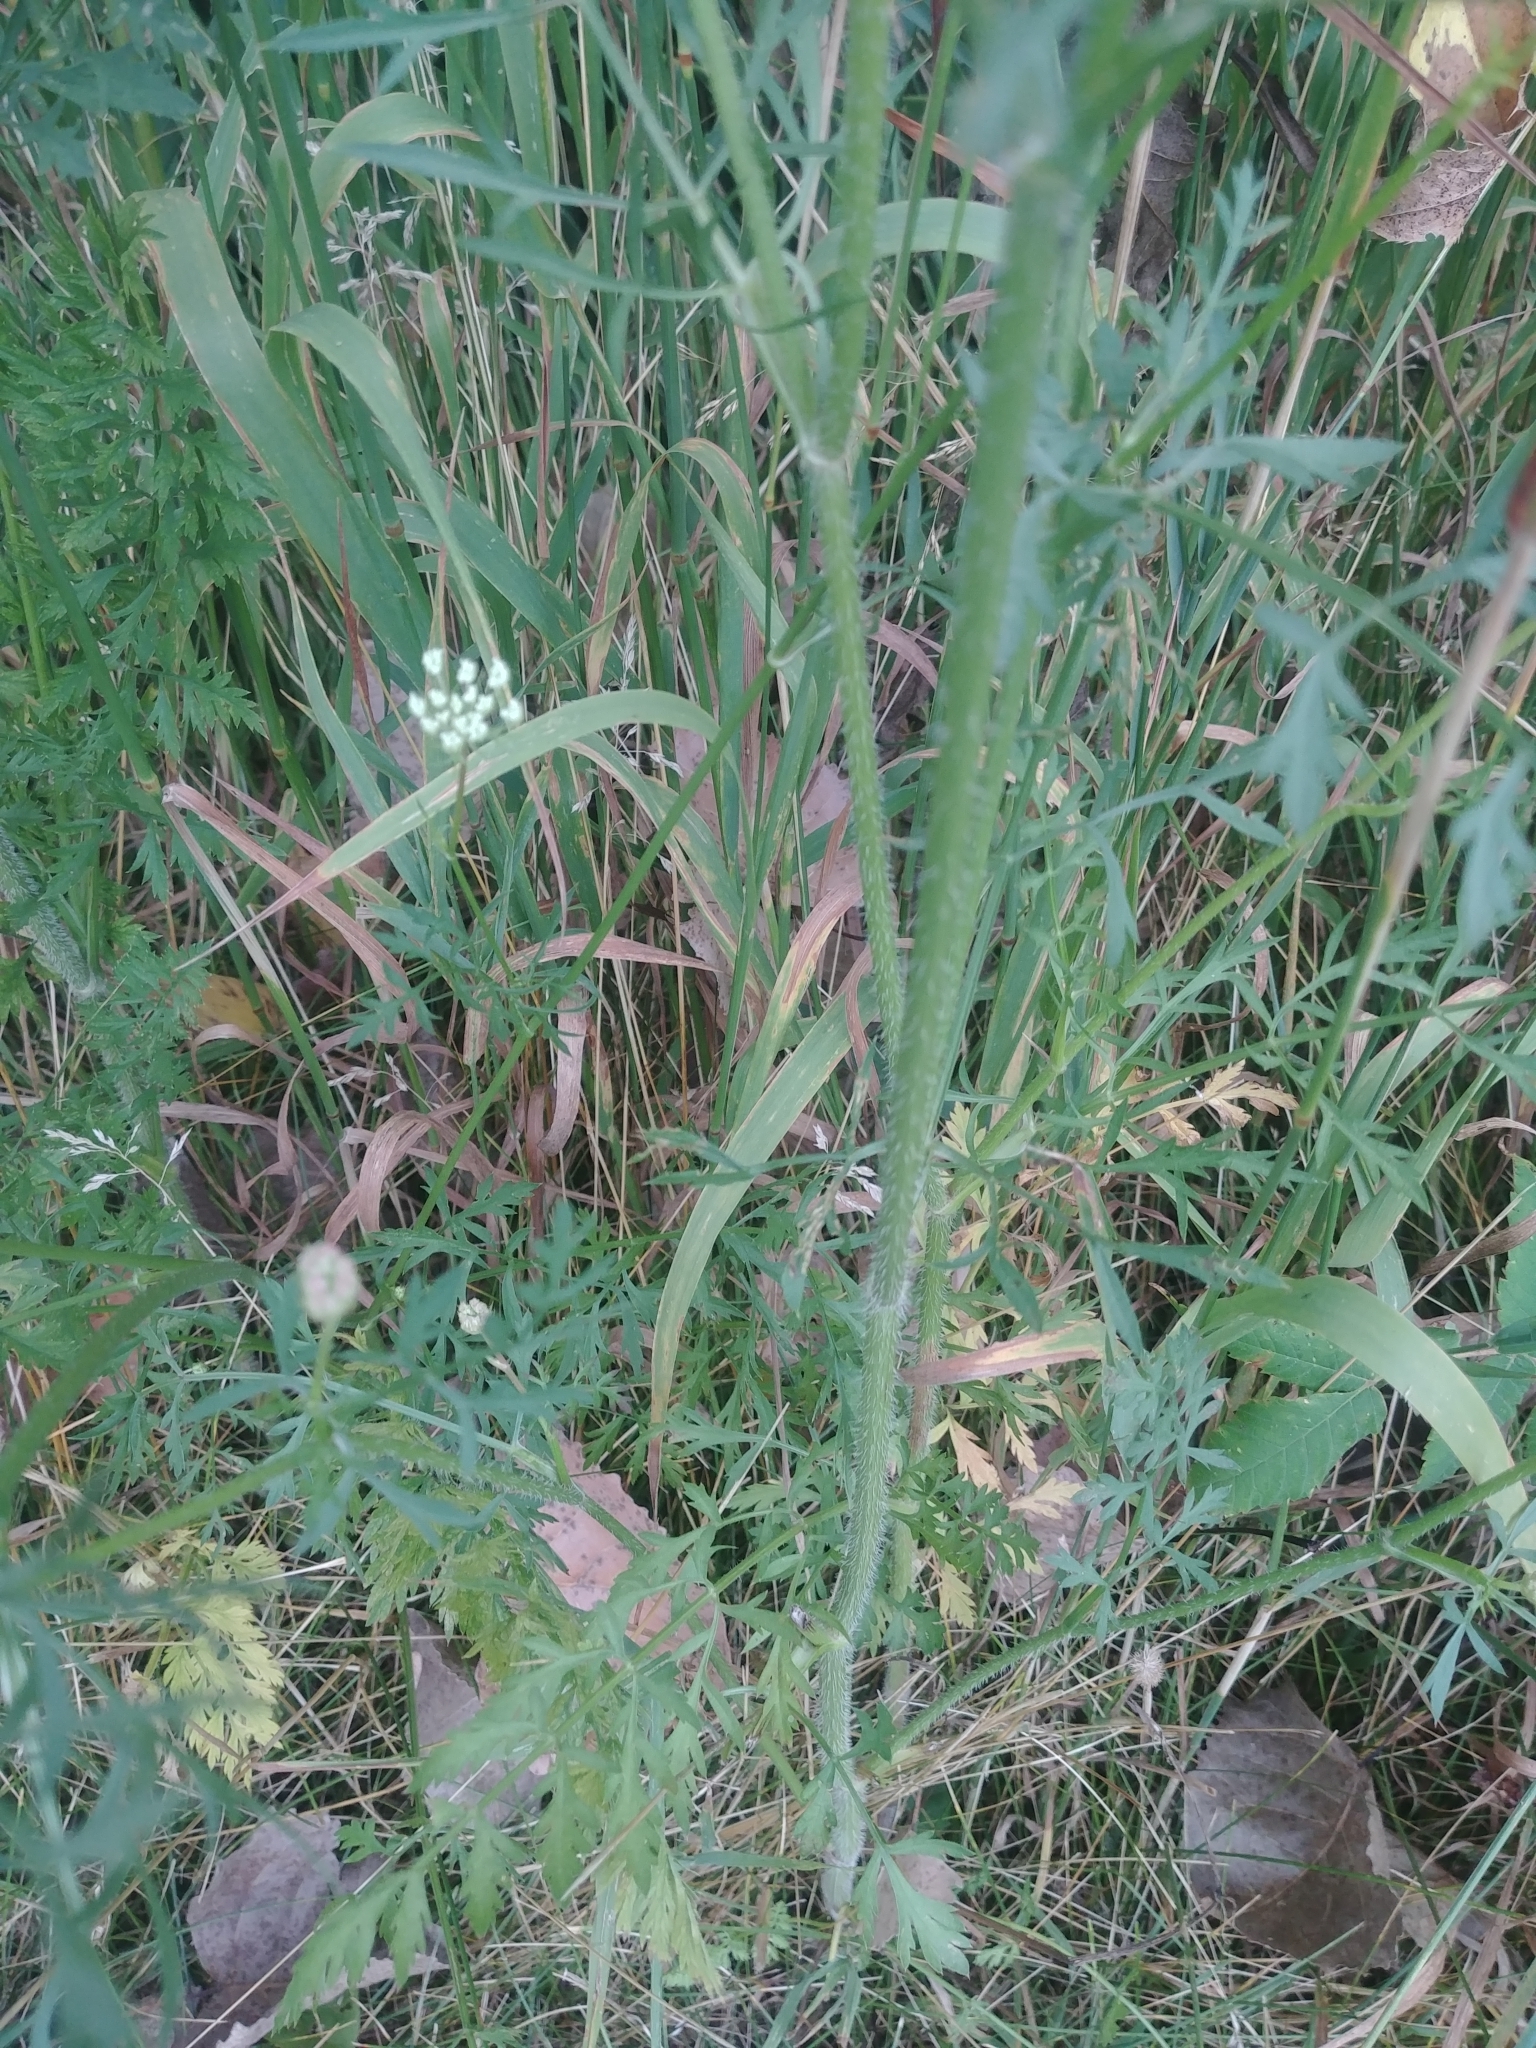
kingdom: Plantae
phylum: Tracheophyta
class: Magnoliopsida
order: Apiales
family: Apiaceae
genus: Daucus
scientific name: Daucus carota
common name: Wild carrot
